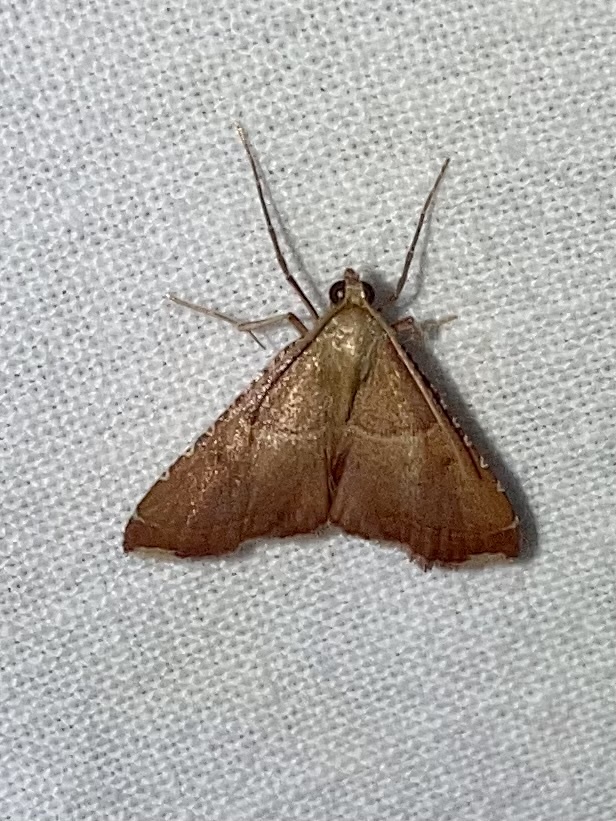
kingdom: Animalia
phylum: Arthropoda
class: Insecta
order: Lepidoptera
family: Pyralidae
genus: Endotricha
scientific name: Endotricha flammealis
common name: Rosy tabby
